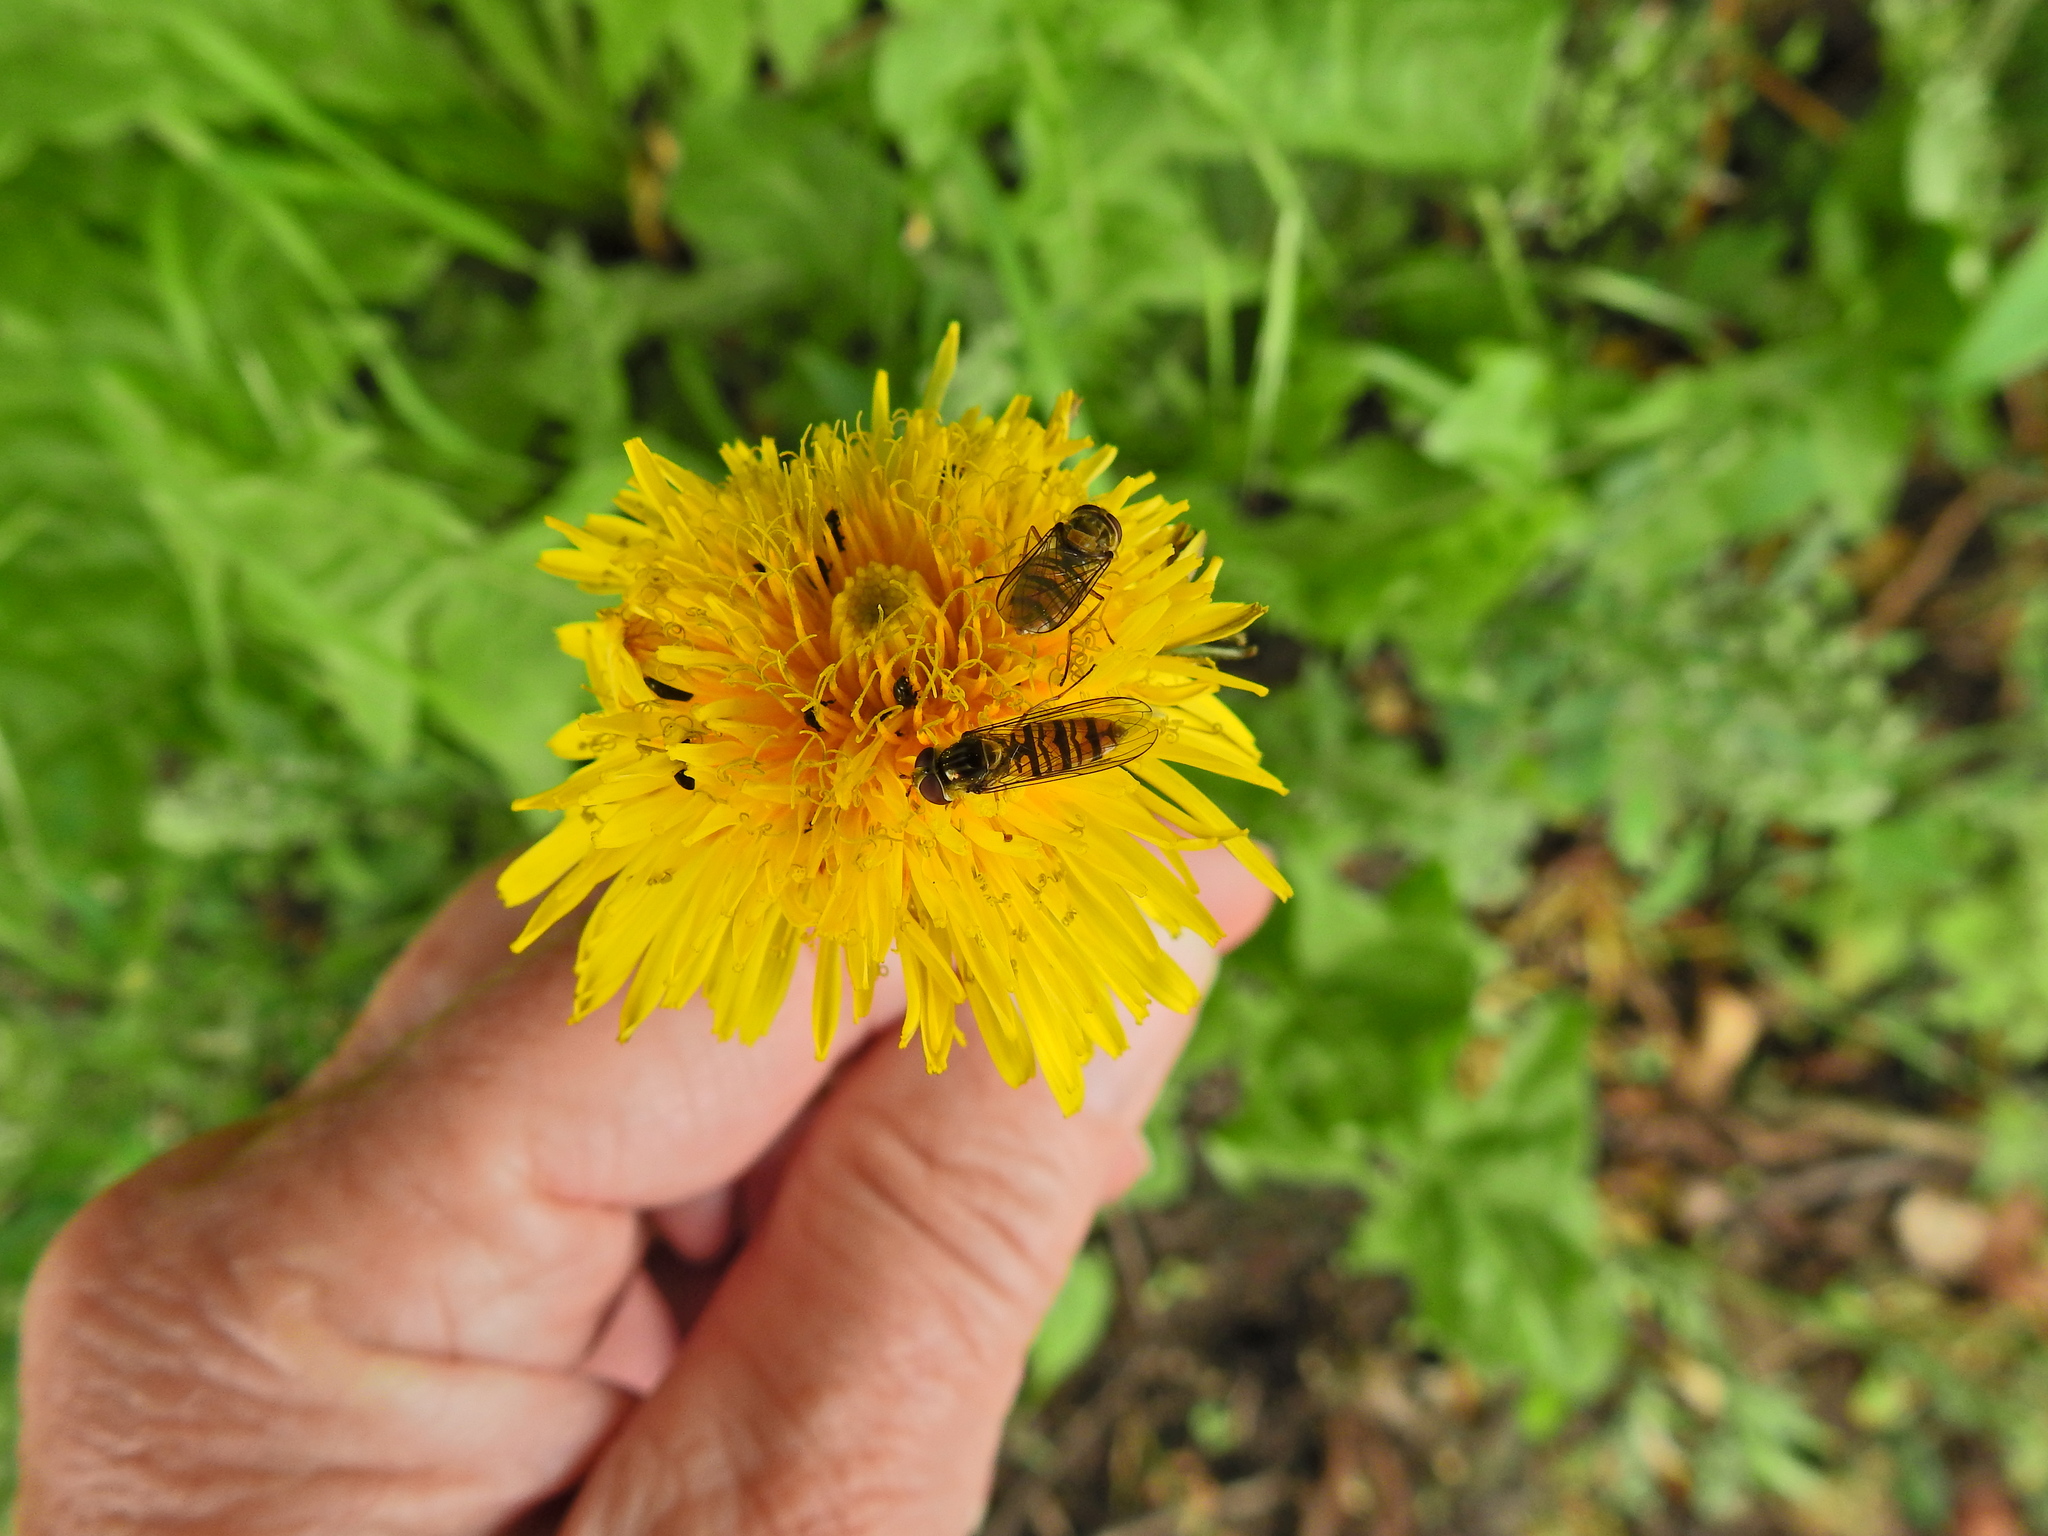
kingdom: Animalia
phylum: Arthropoda
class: Insecta
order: Diptera
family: Syrphidae
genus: Episyrphus
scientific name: Episyrphus balteatus
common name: Marmalade hoverfly
